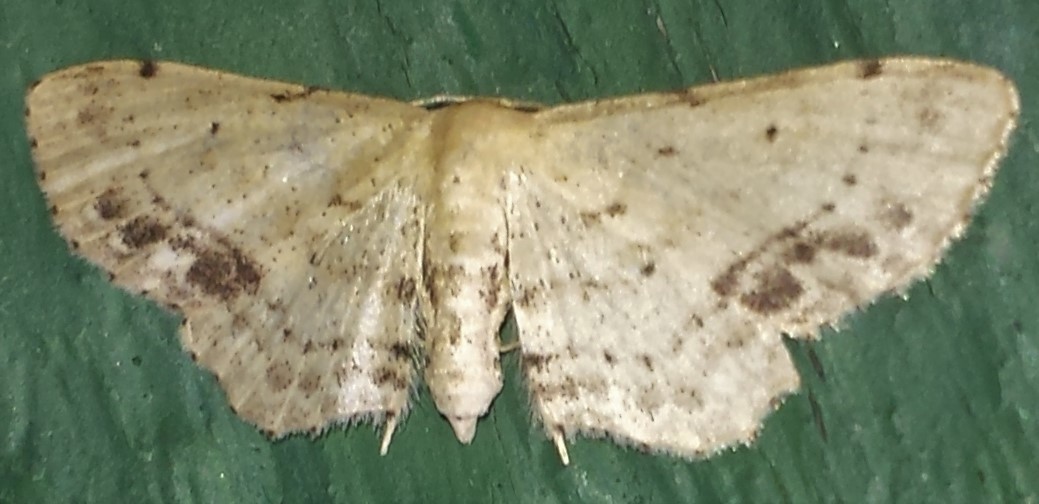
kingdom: Animalia
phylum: Arthropoda
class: Insecta
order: Lepidoptera
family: Geometridae
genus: Idaea
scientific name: Idaea dimidiata
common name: Single-dotted wave
